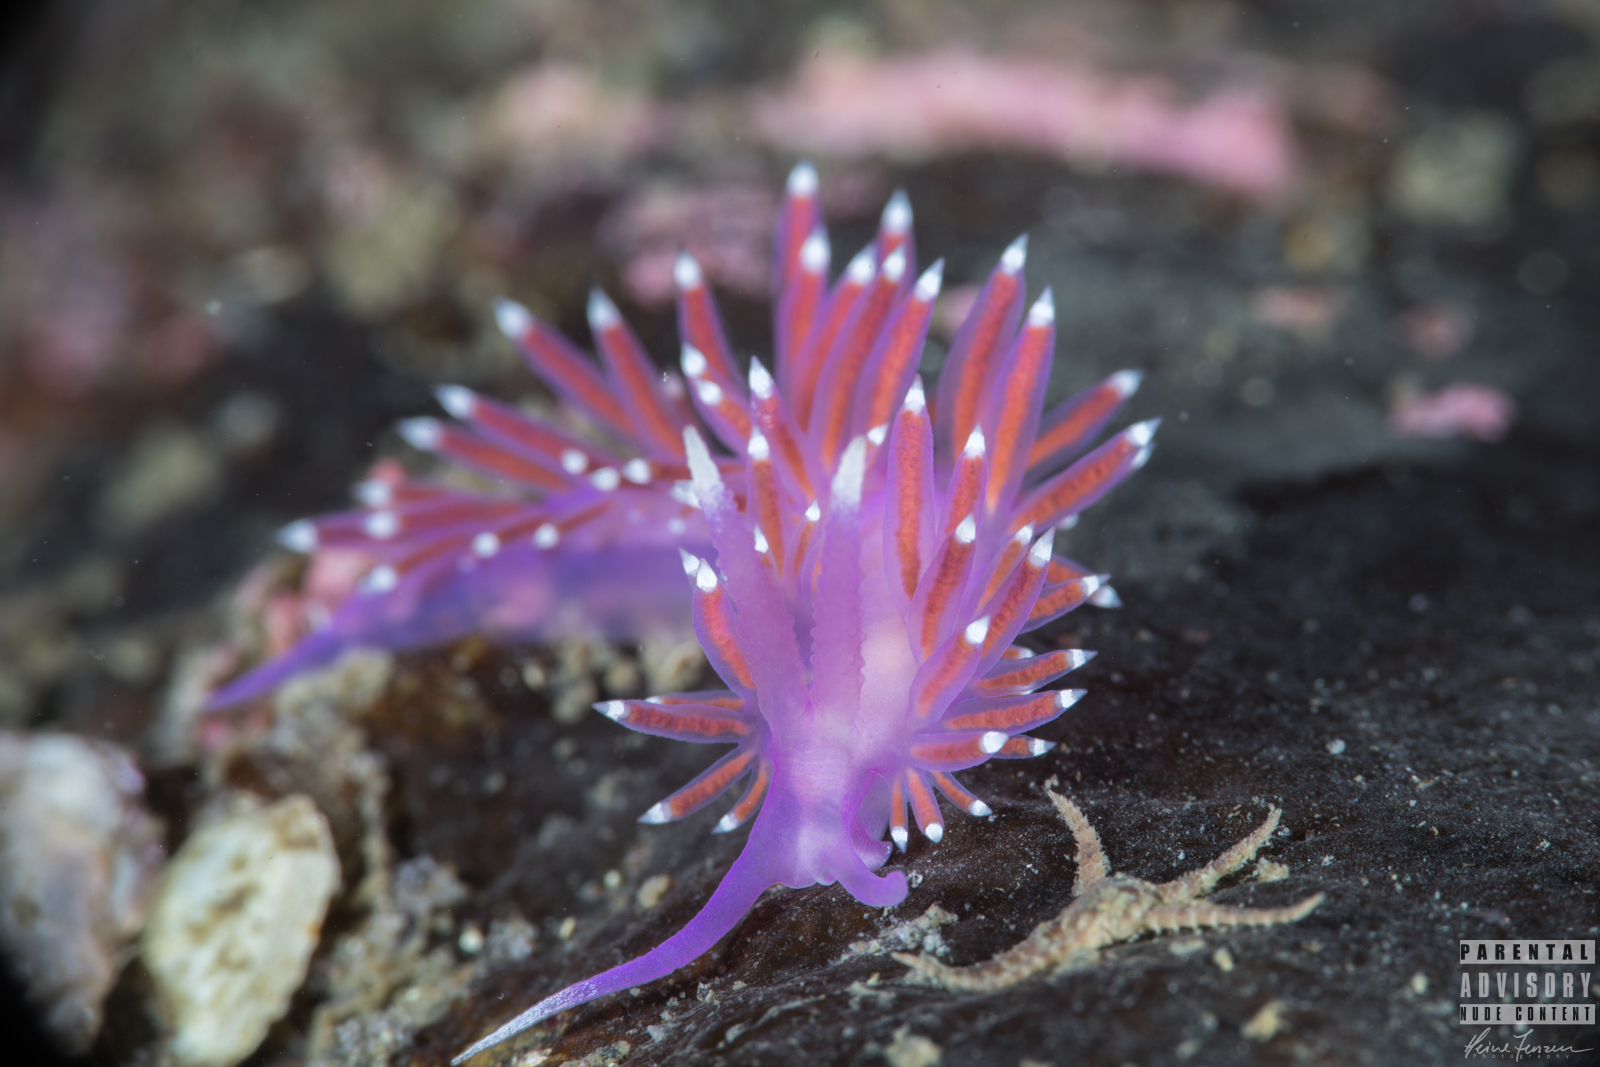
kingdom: Animalia
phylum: Mollusca
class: Gastropoda
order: Nudibranchia
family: Flabellinidae
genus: Edmundsella
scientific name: Edmundsella pedata
